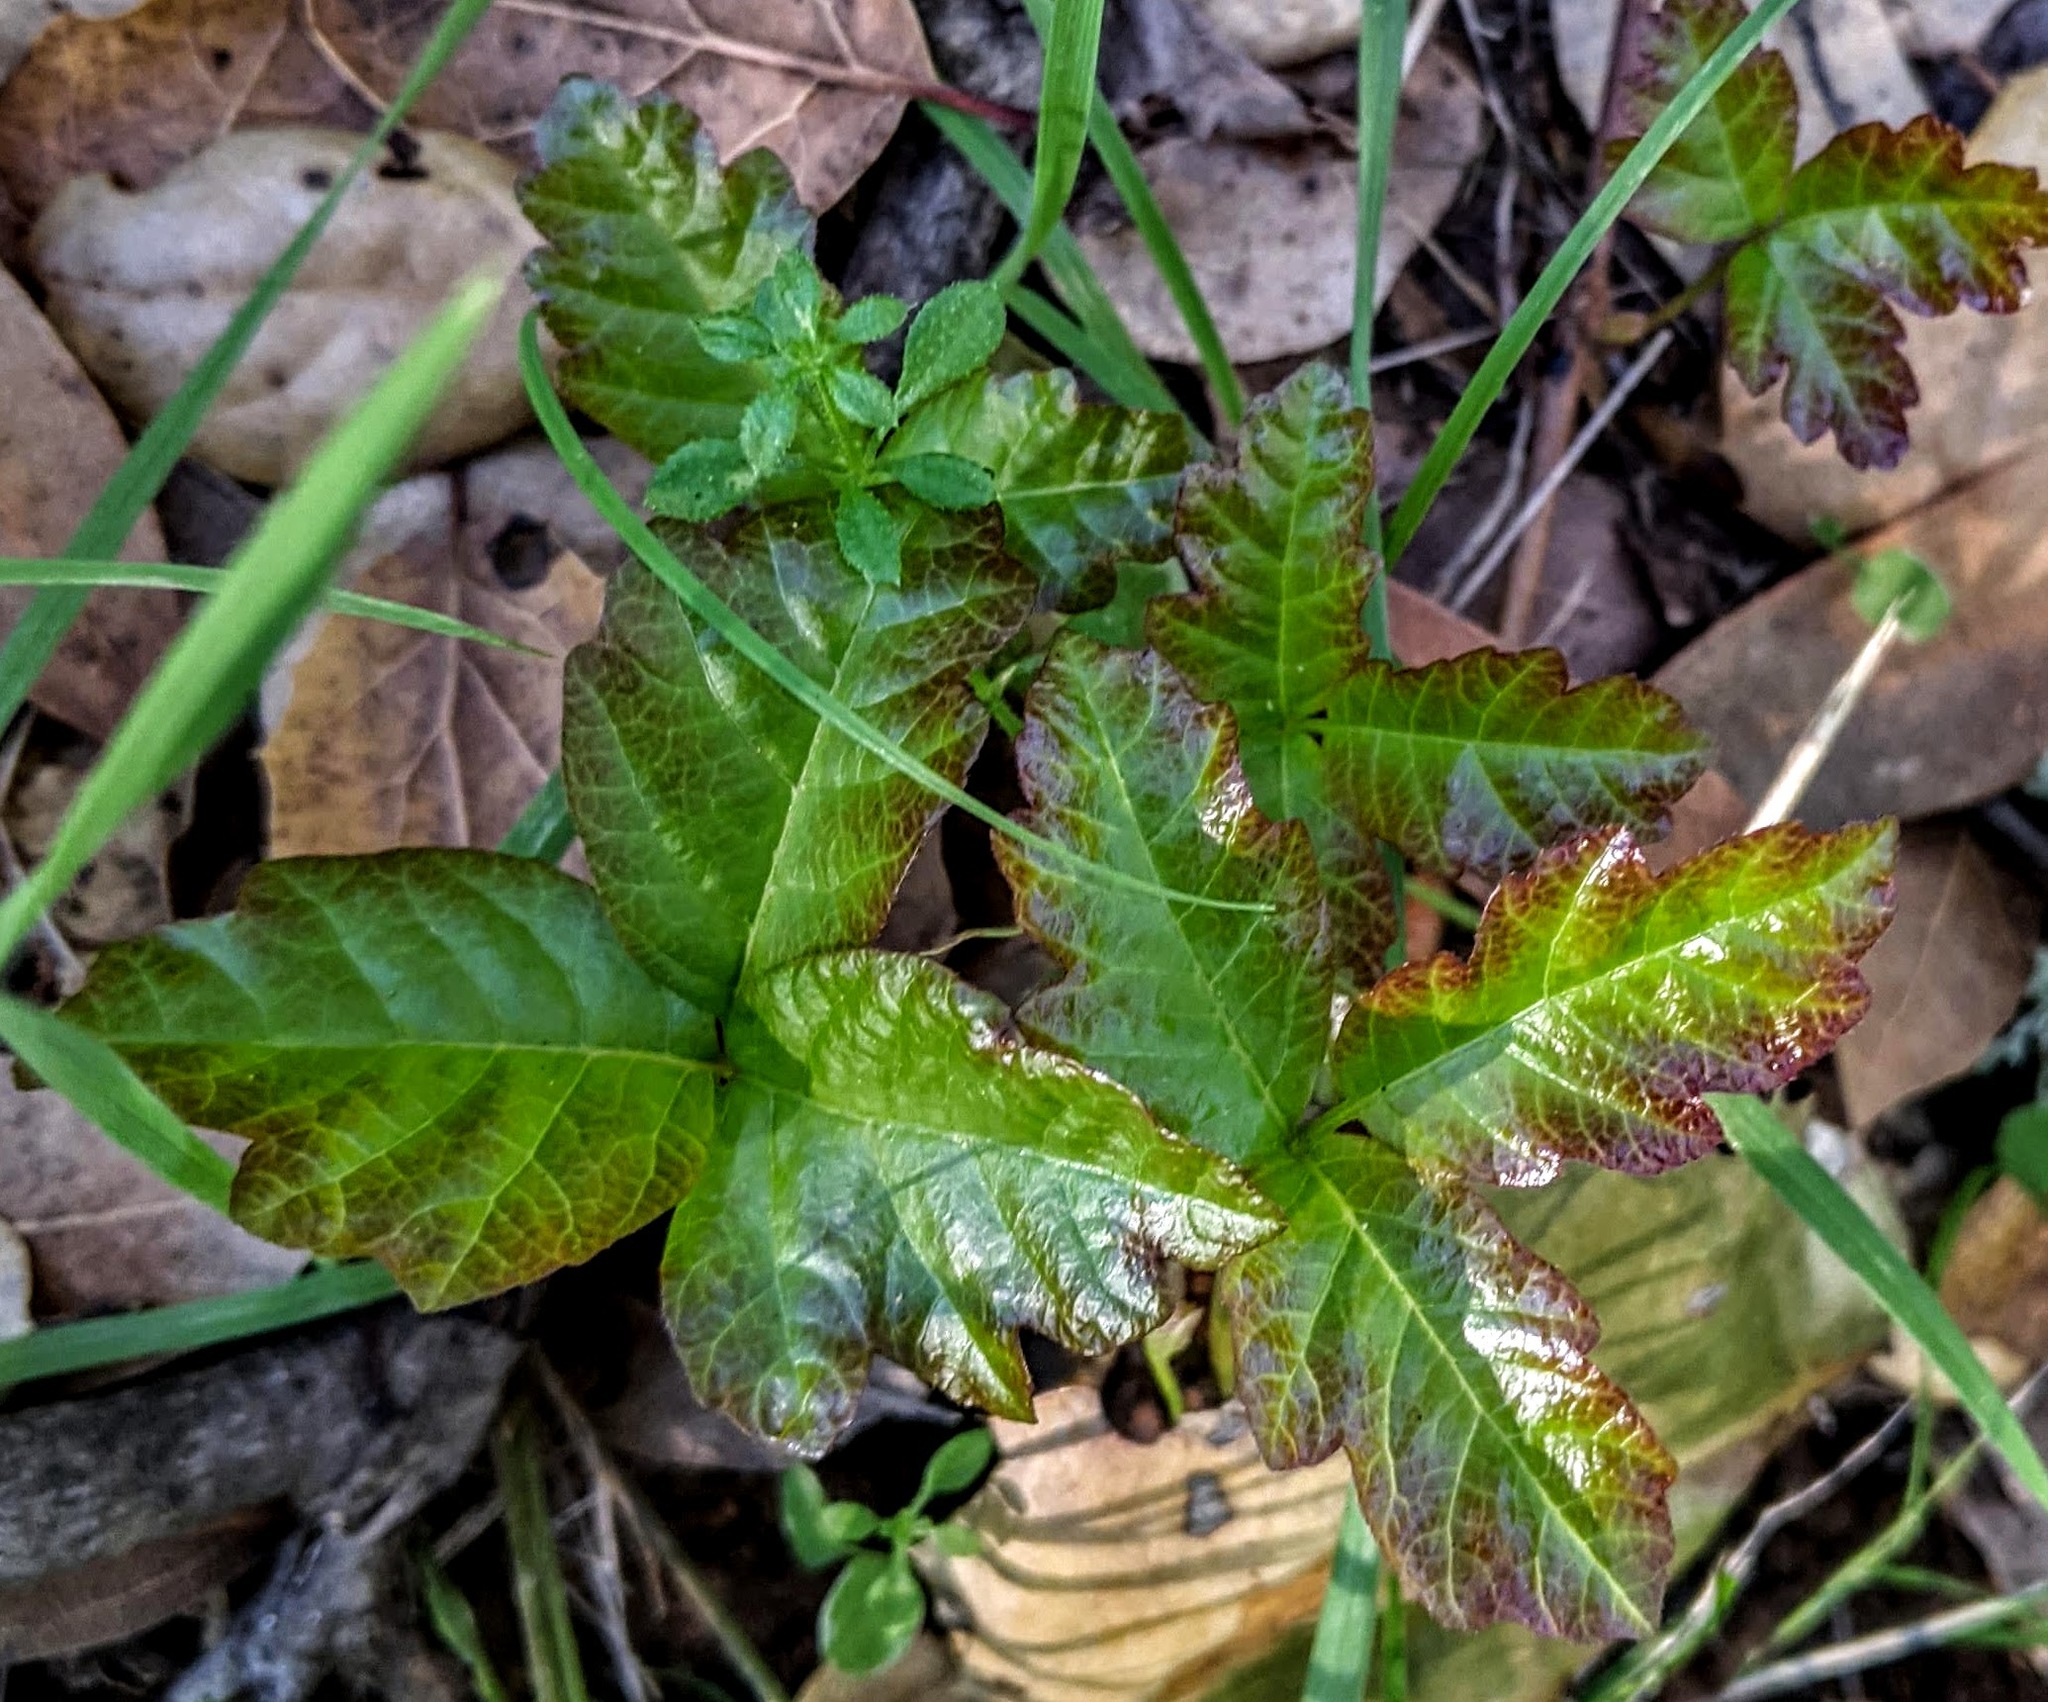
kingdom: Plantae
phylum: Tracheophyta
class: Magnoliopsida
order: Sapindales
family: Anacardiaceae
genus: Toxicodendron
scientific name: Toxicodendron diversilobum
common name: Pacific poison-oak
